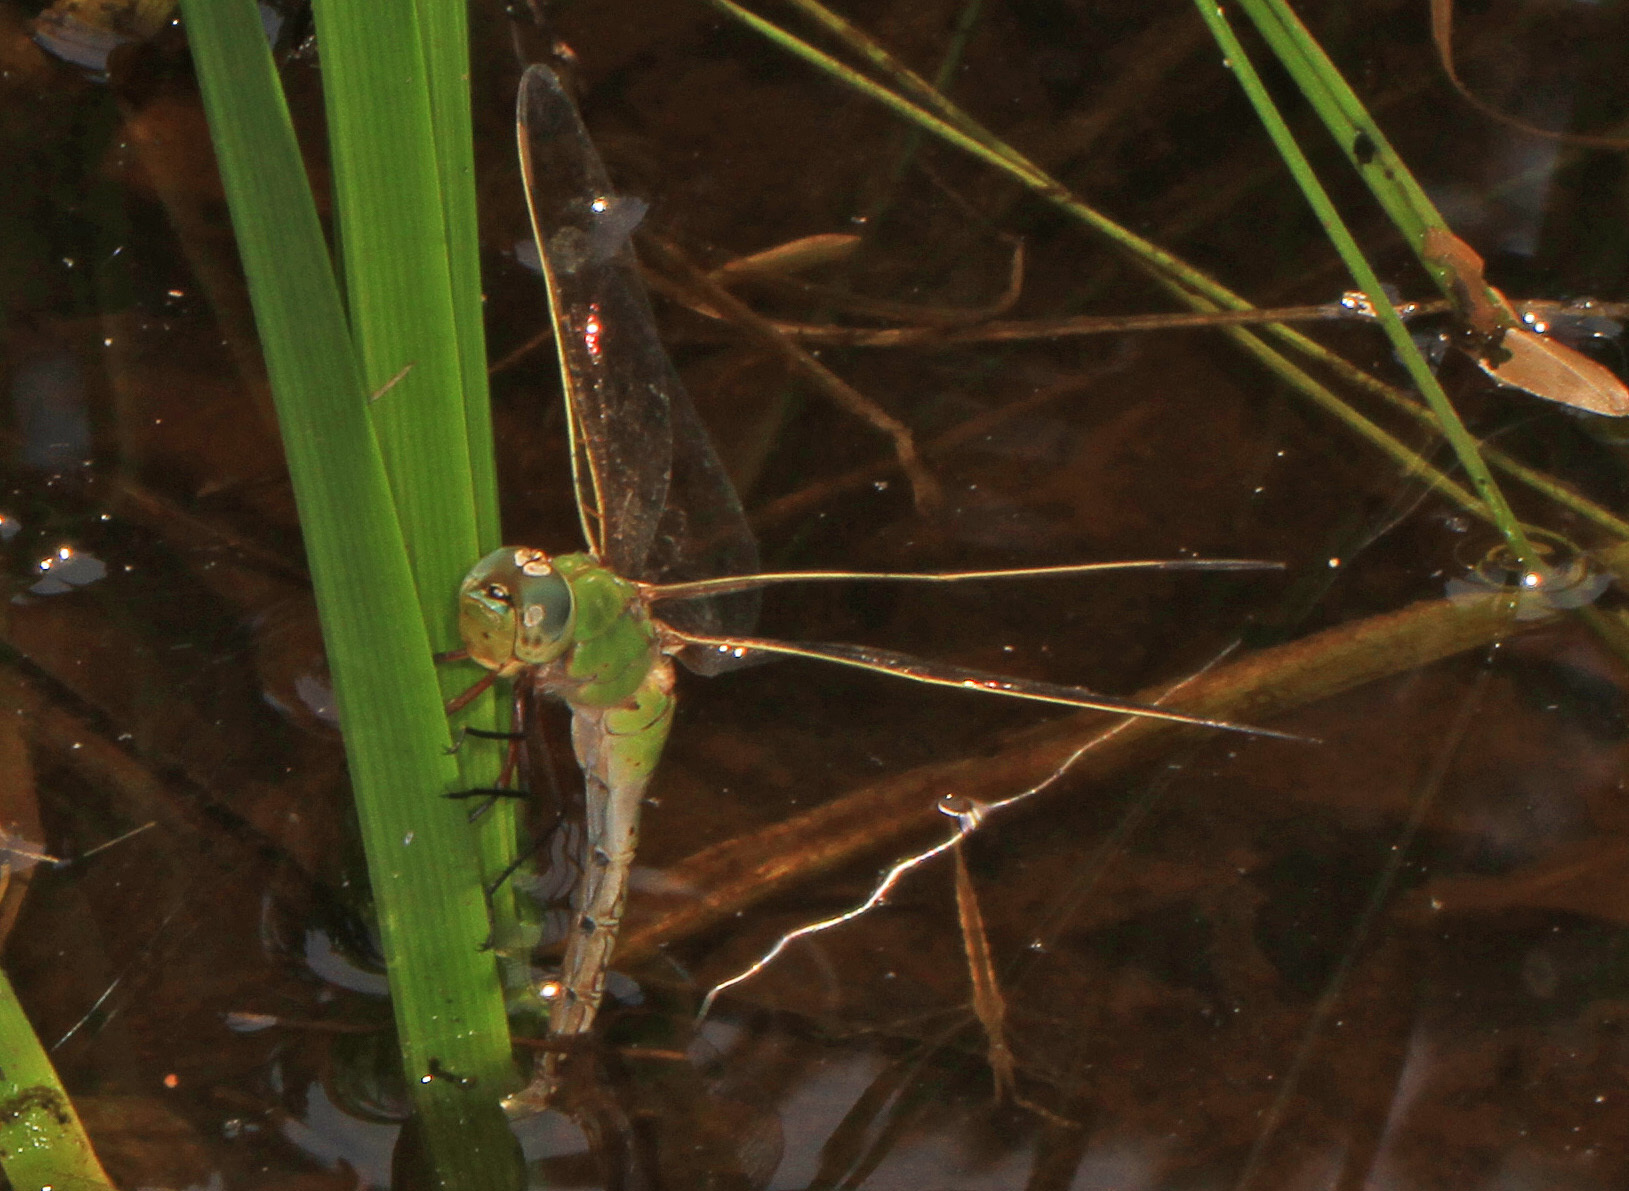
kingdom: Animalia
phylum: Arthropoda
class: Insecta
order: Odonata
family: Aeshnidae
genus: Anax
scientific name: Anax junius
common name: Common green darner
